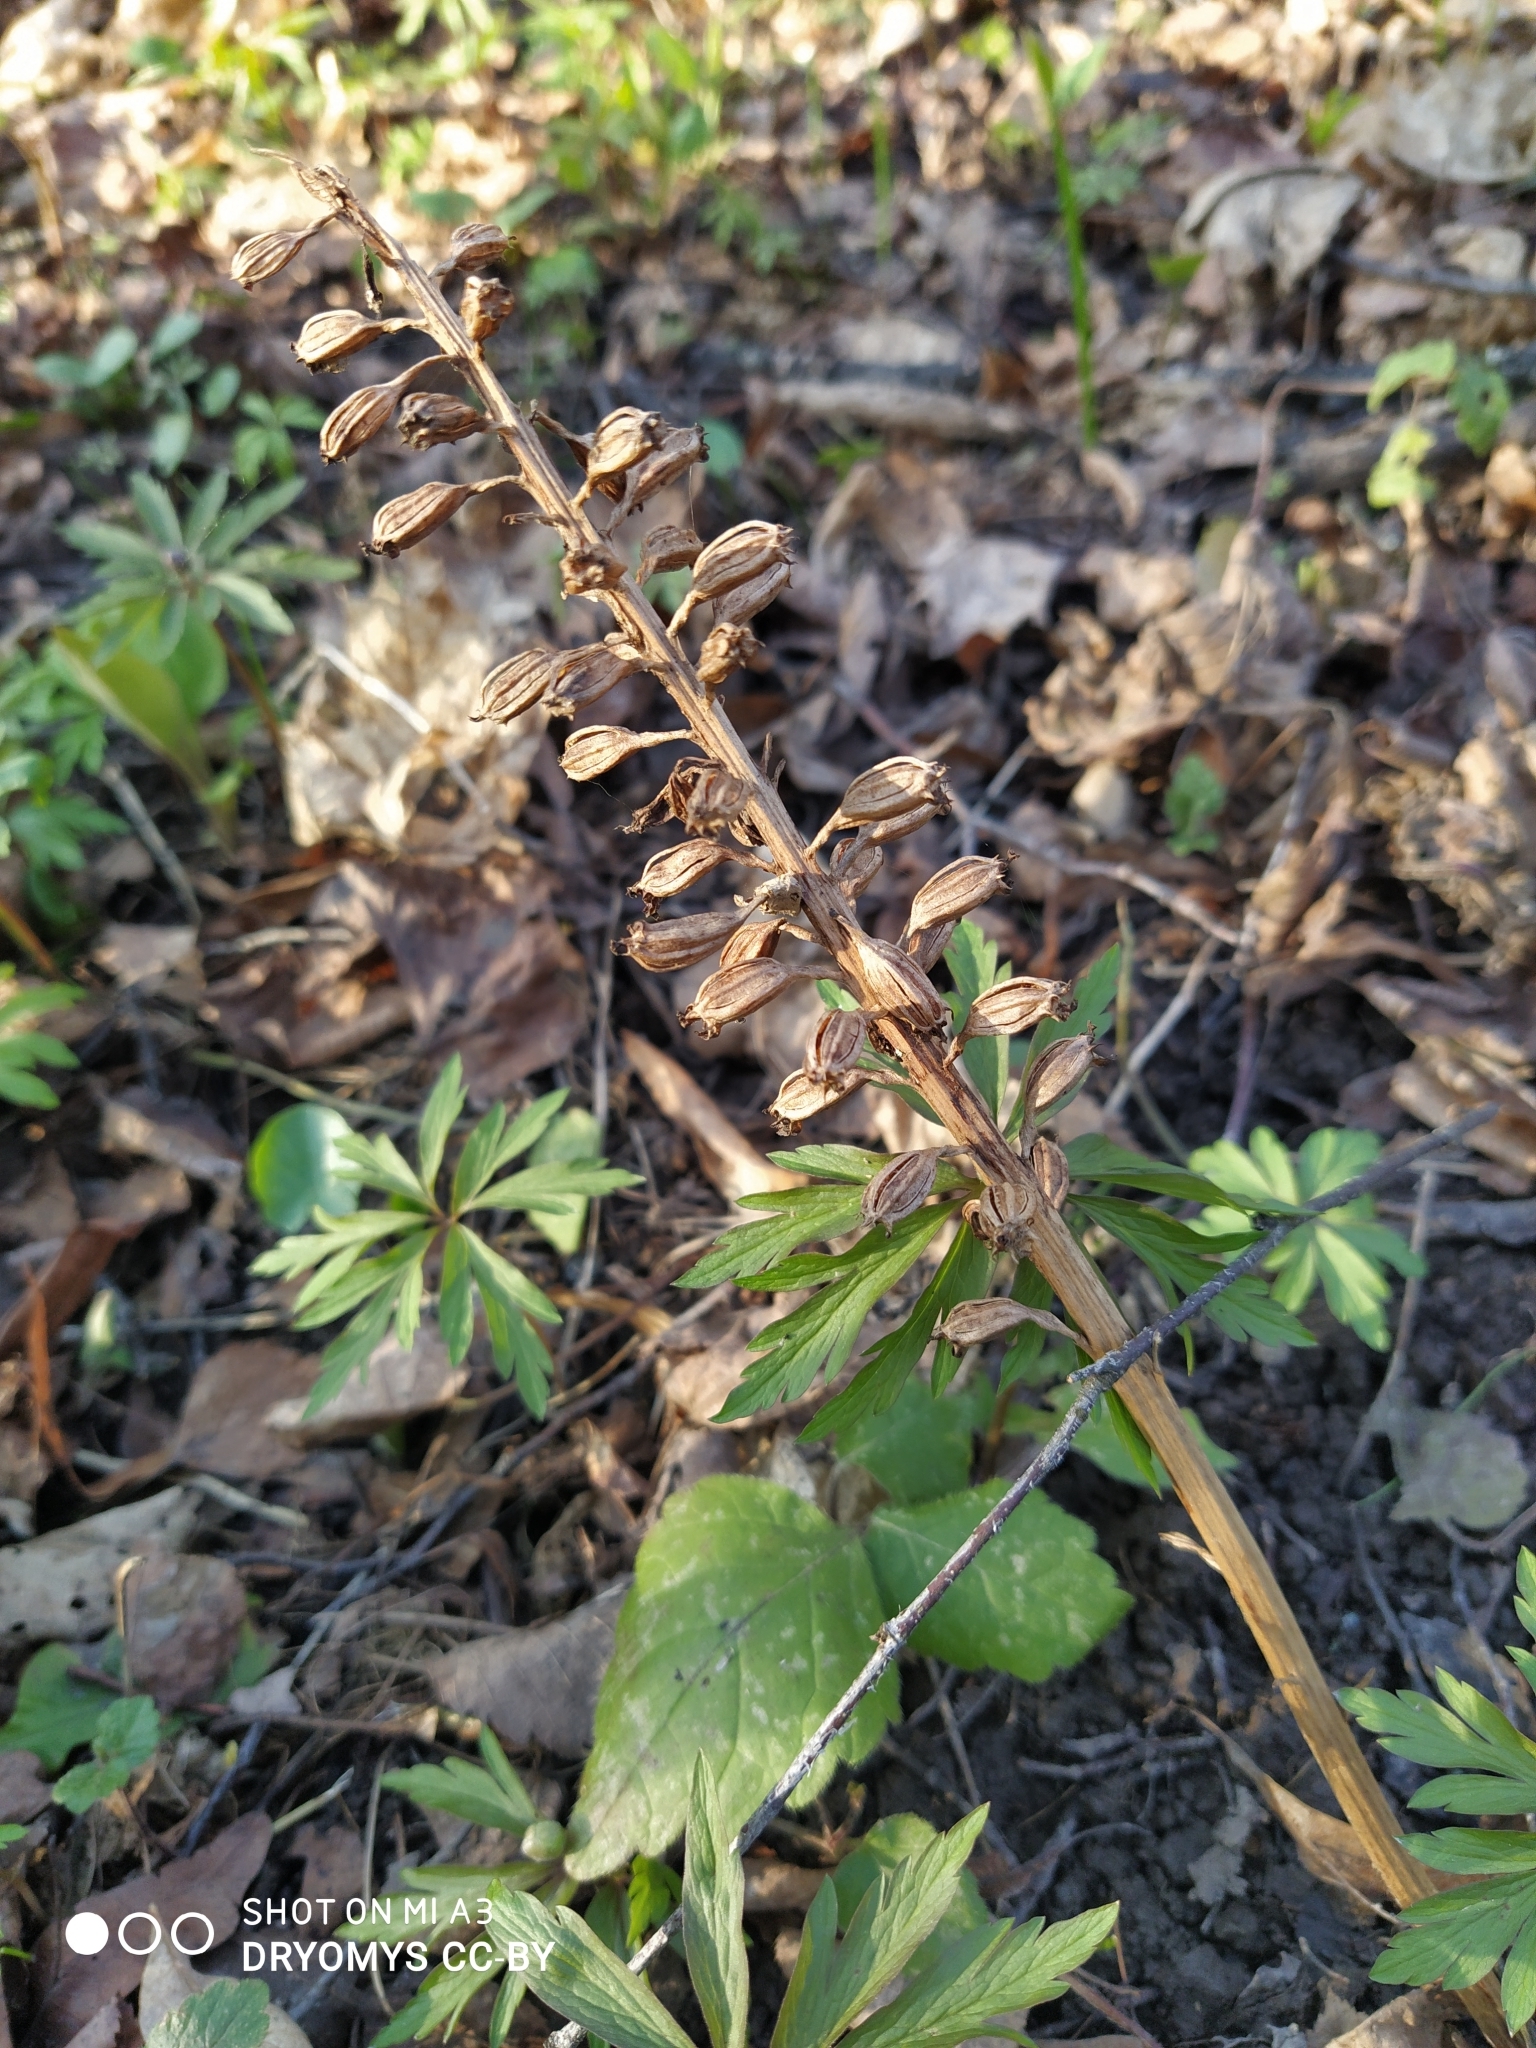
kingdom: Plantae
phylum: Tracheophyta
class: Liliopsida
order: Asparagales
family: Orchidaceae
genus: Neottia
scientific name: Neottia nidus-avis
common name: Bird's-nest orchid
